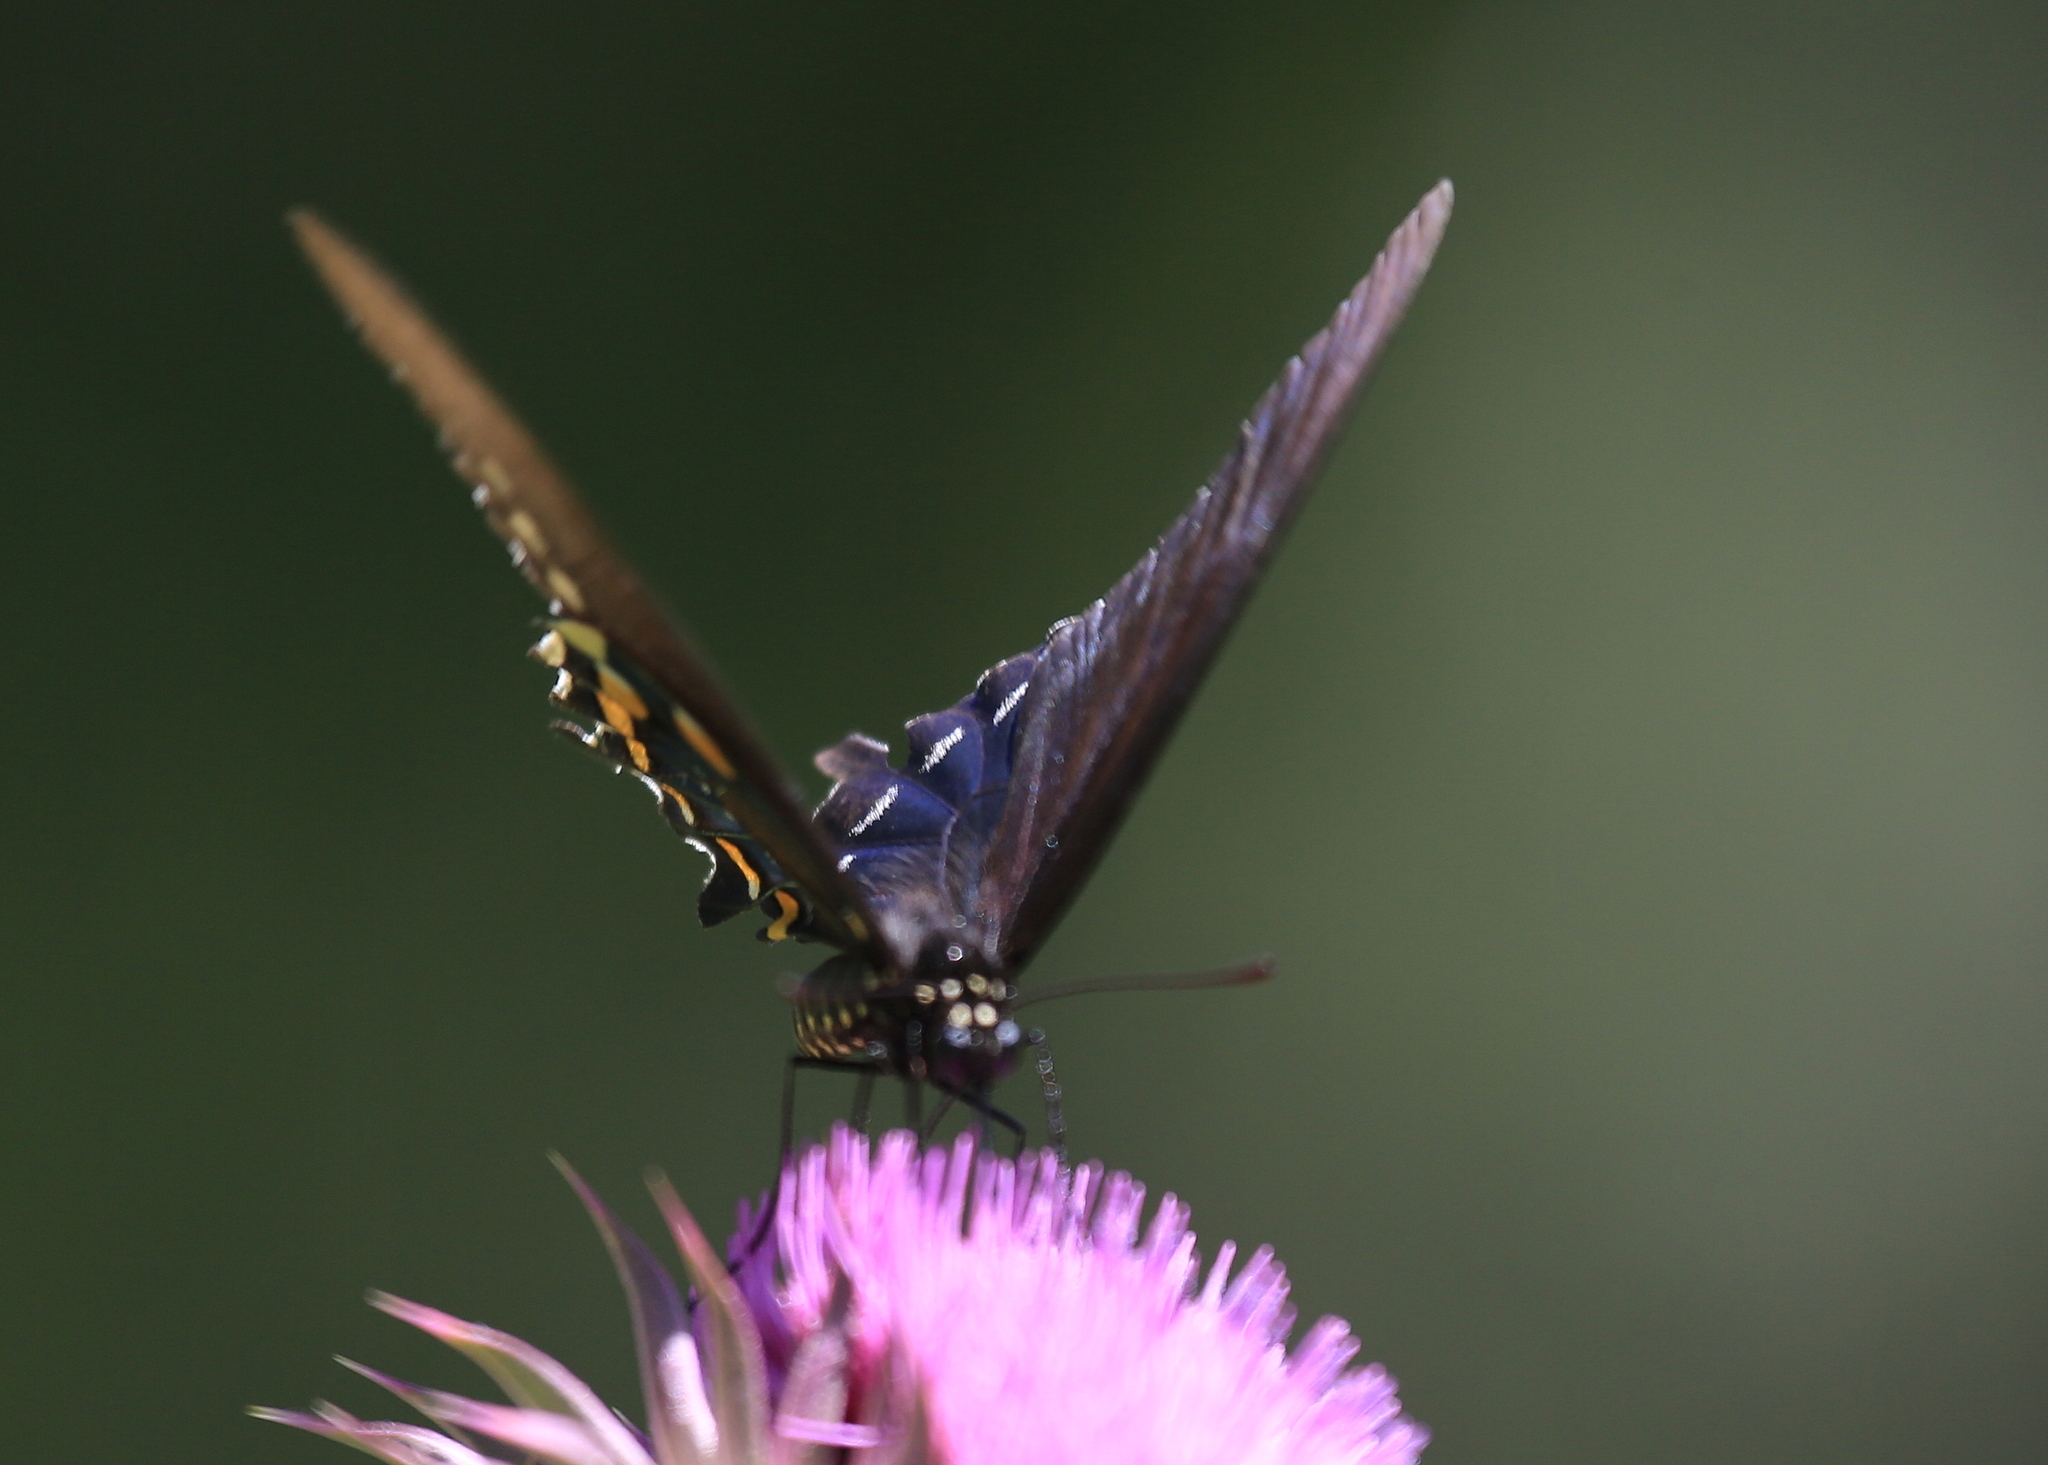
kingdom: Animalia
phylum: Arthropoda
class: Insecta
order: Lepidoptera
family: Papilionidae
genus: Battus
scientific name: Battus philenor
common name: Pipevine swallowtail
